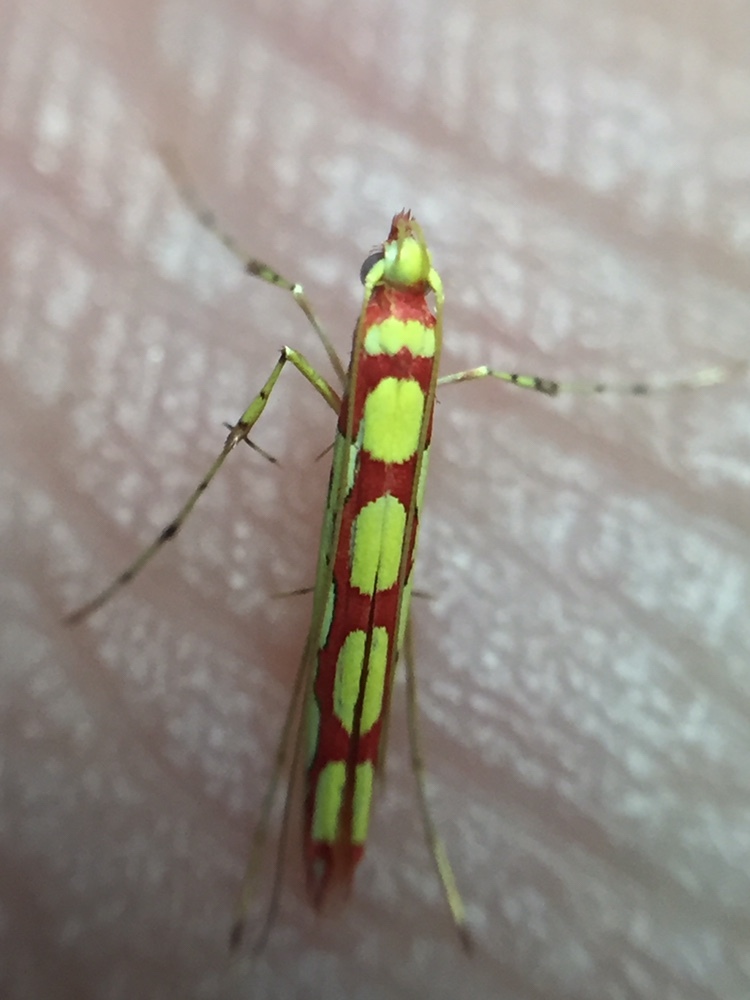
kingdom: Animalia
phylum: Arthropoda
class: Insecta
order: Lepidoptera
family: Gracillariidae
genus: Macarostola
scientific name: Macarostola miniella
